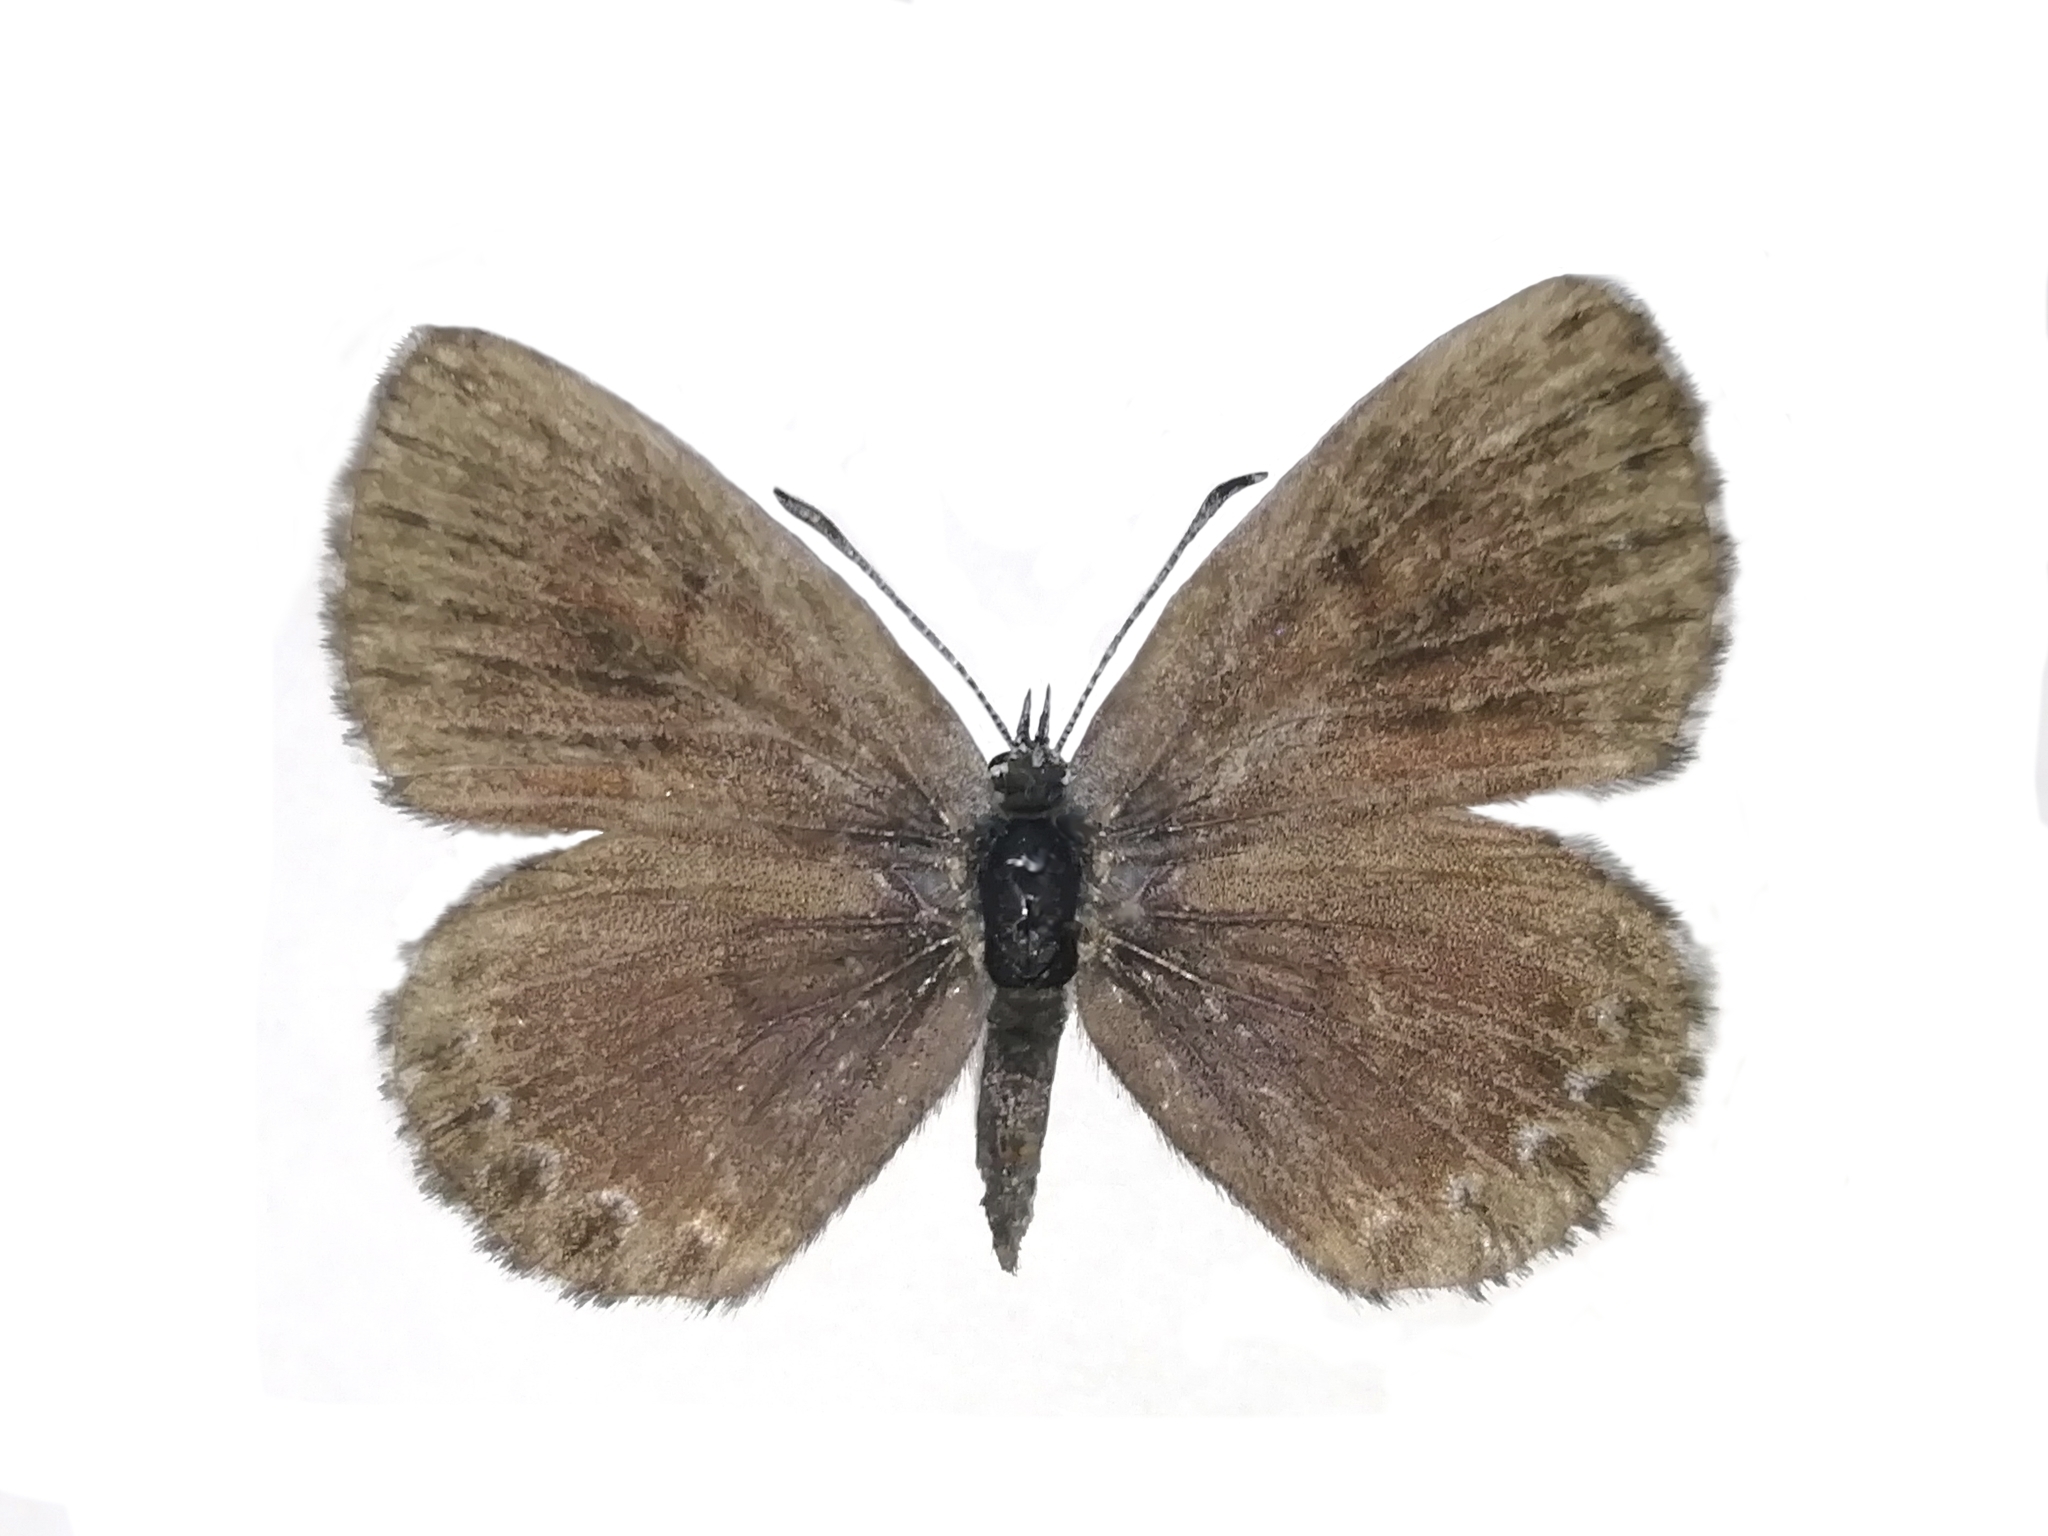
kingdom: Animalia
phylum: Arthropoda
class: Insecta
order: Lepidoptera
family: Lycaenidae
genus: Scolitantides
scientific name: Scolitantides orion
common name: Chequered blue
